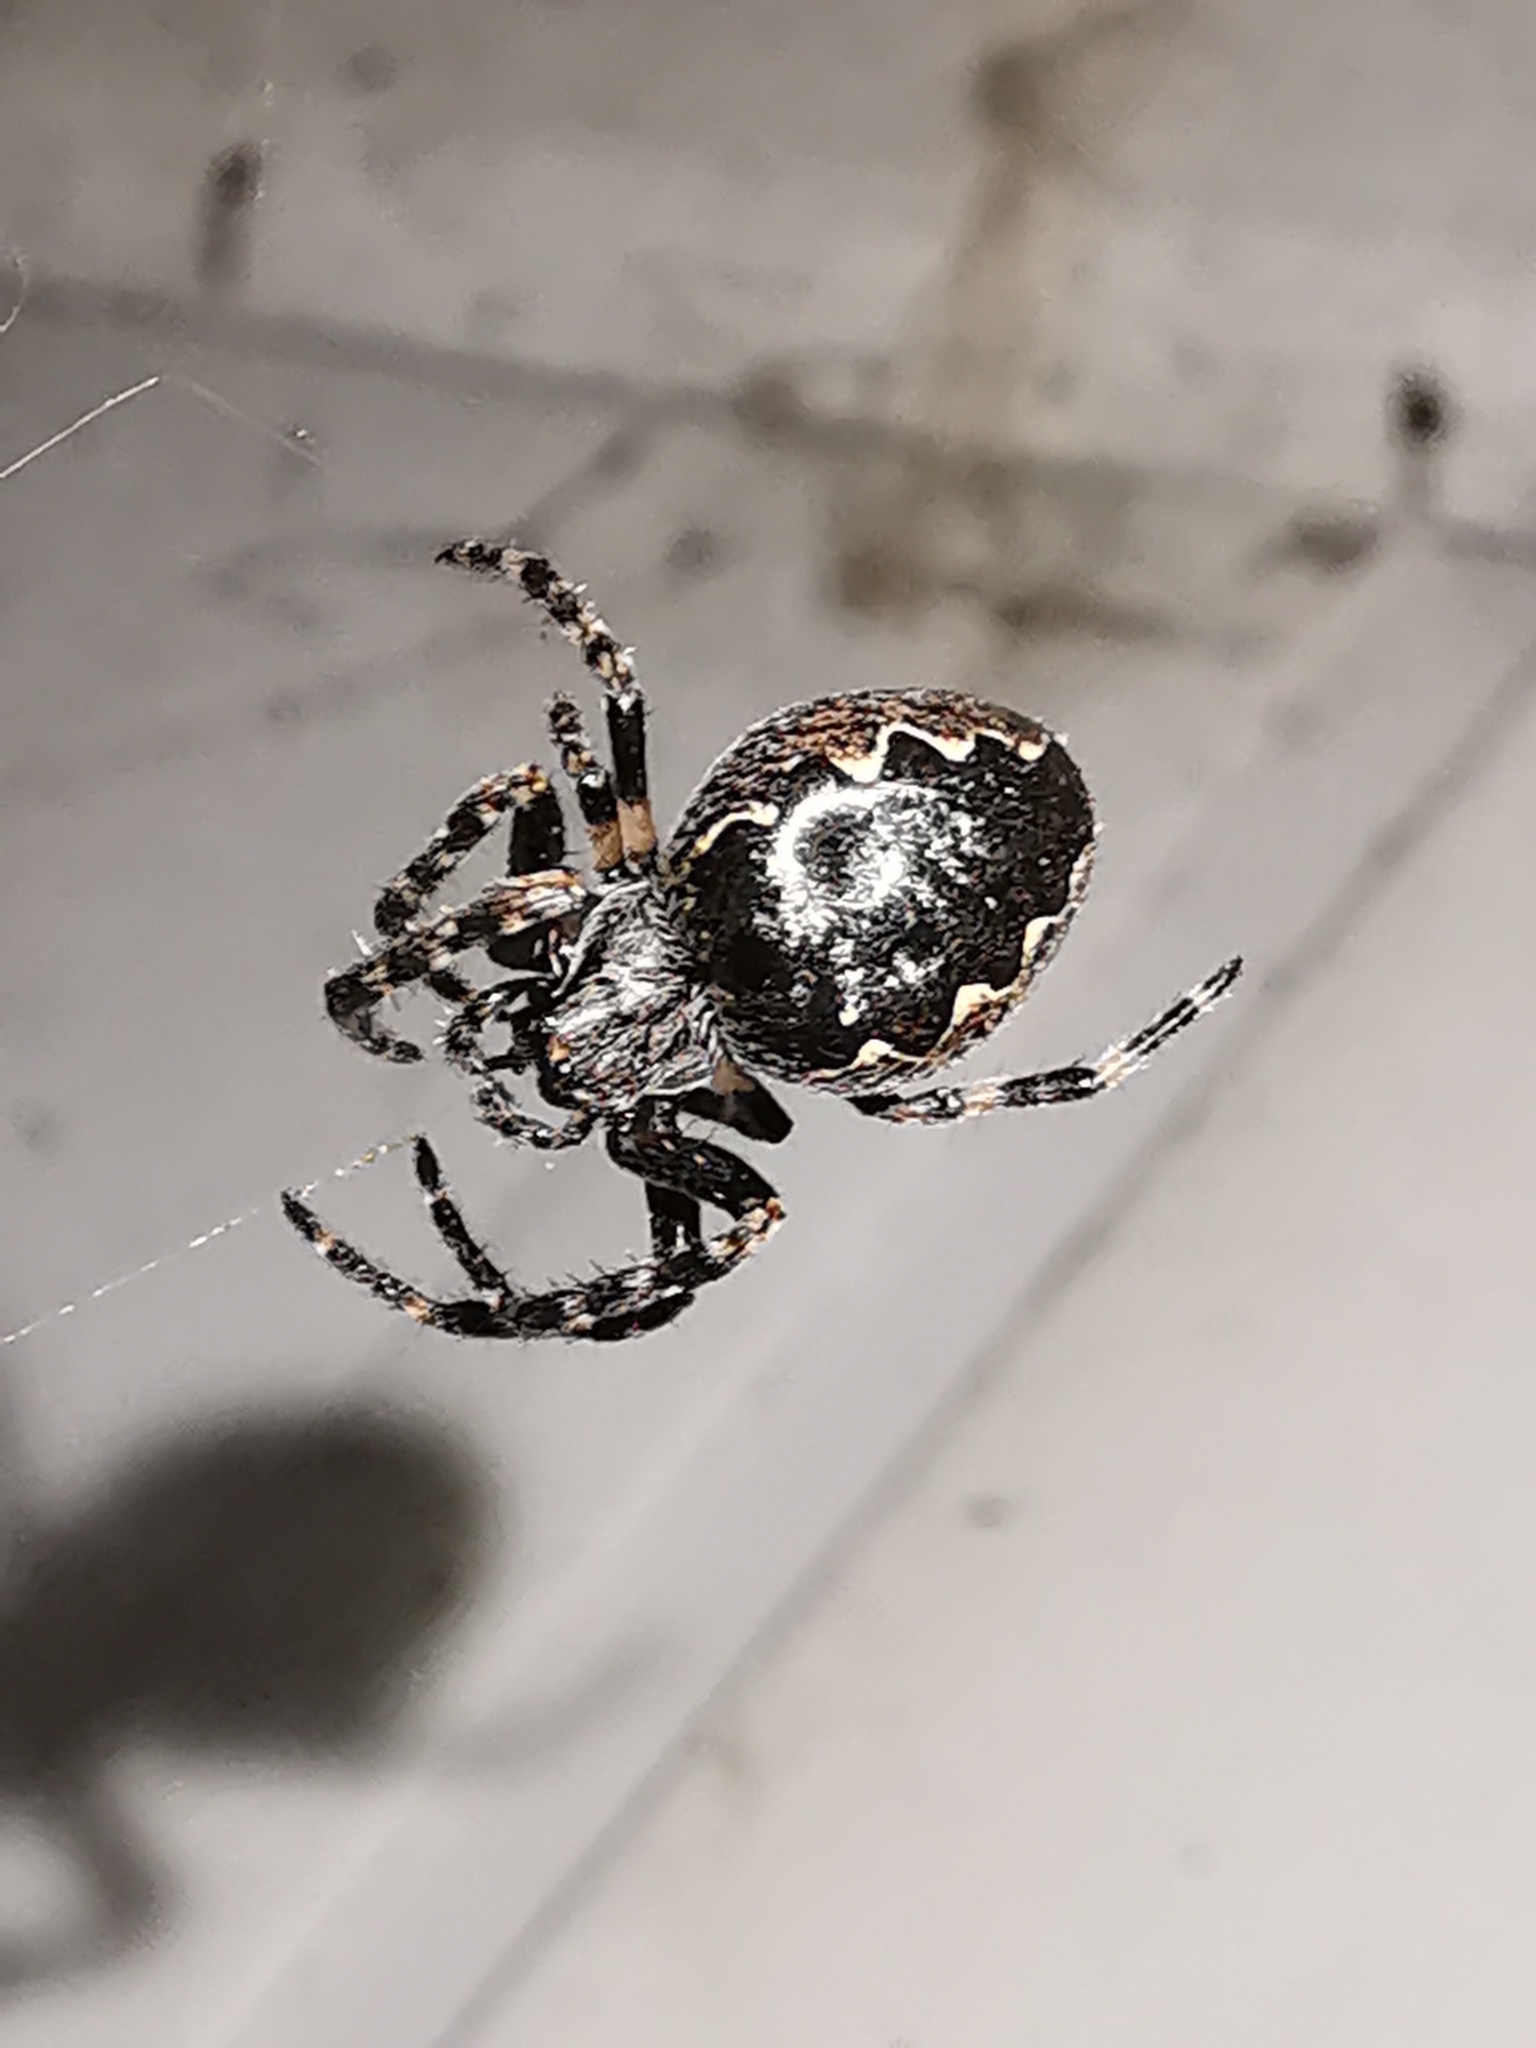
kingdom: Animalia
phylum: Arthropoda
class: Arachnida
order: Araneae
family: Araneidae
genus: Nuctenea
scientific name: Nuctenea umbratica
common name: Toad spider
